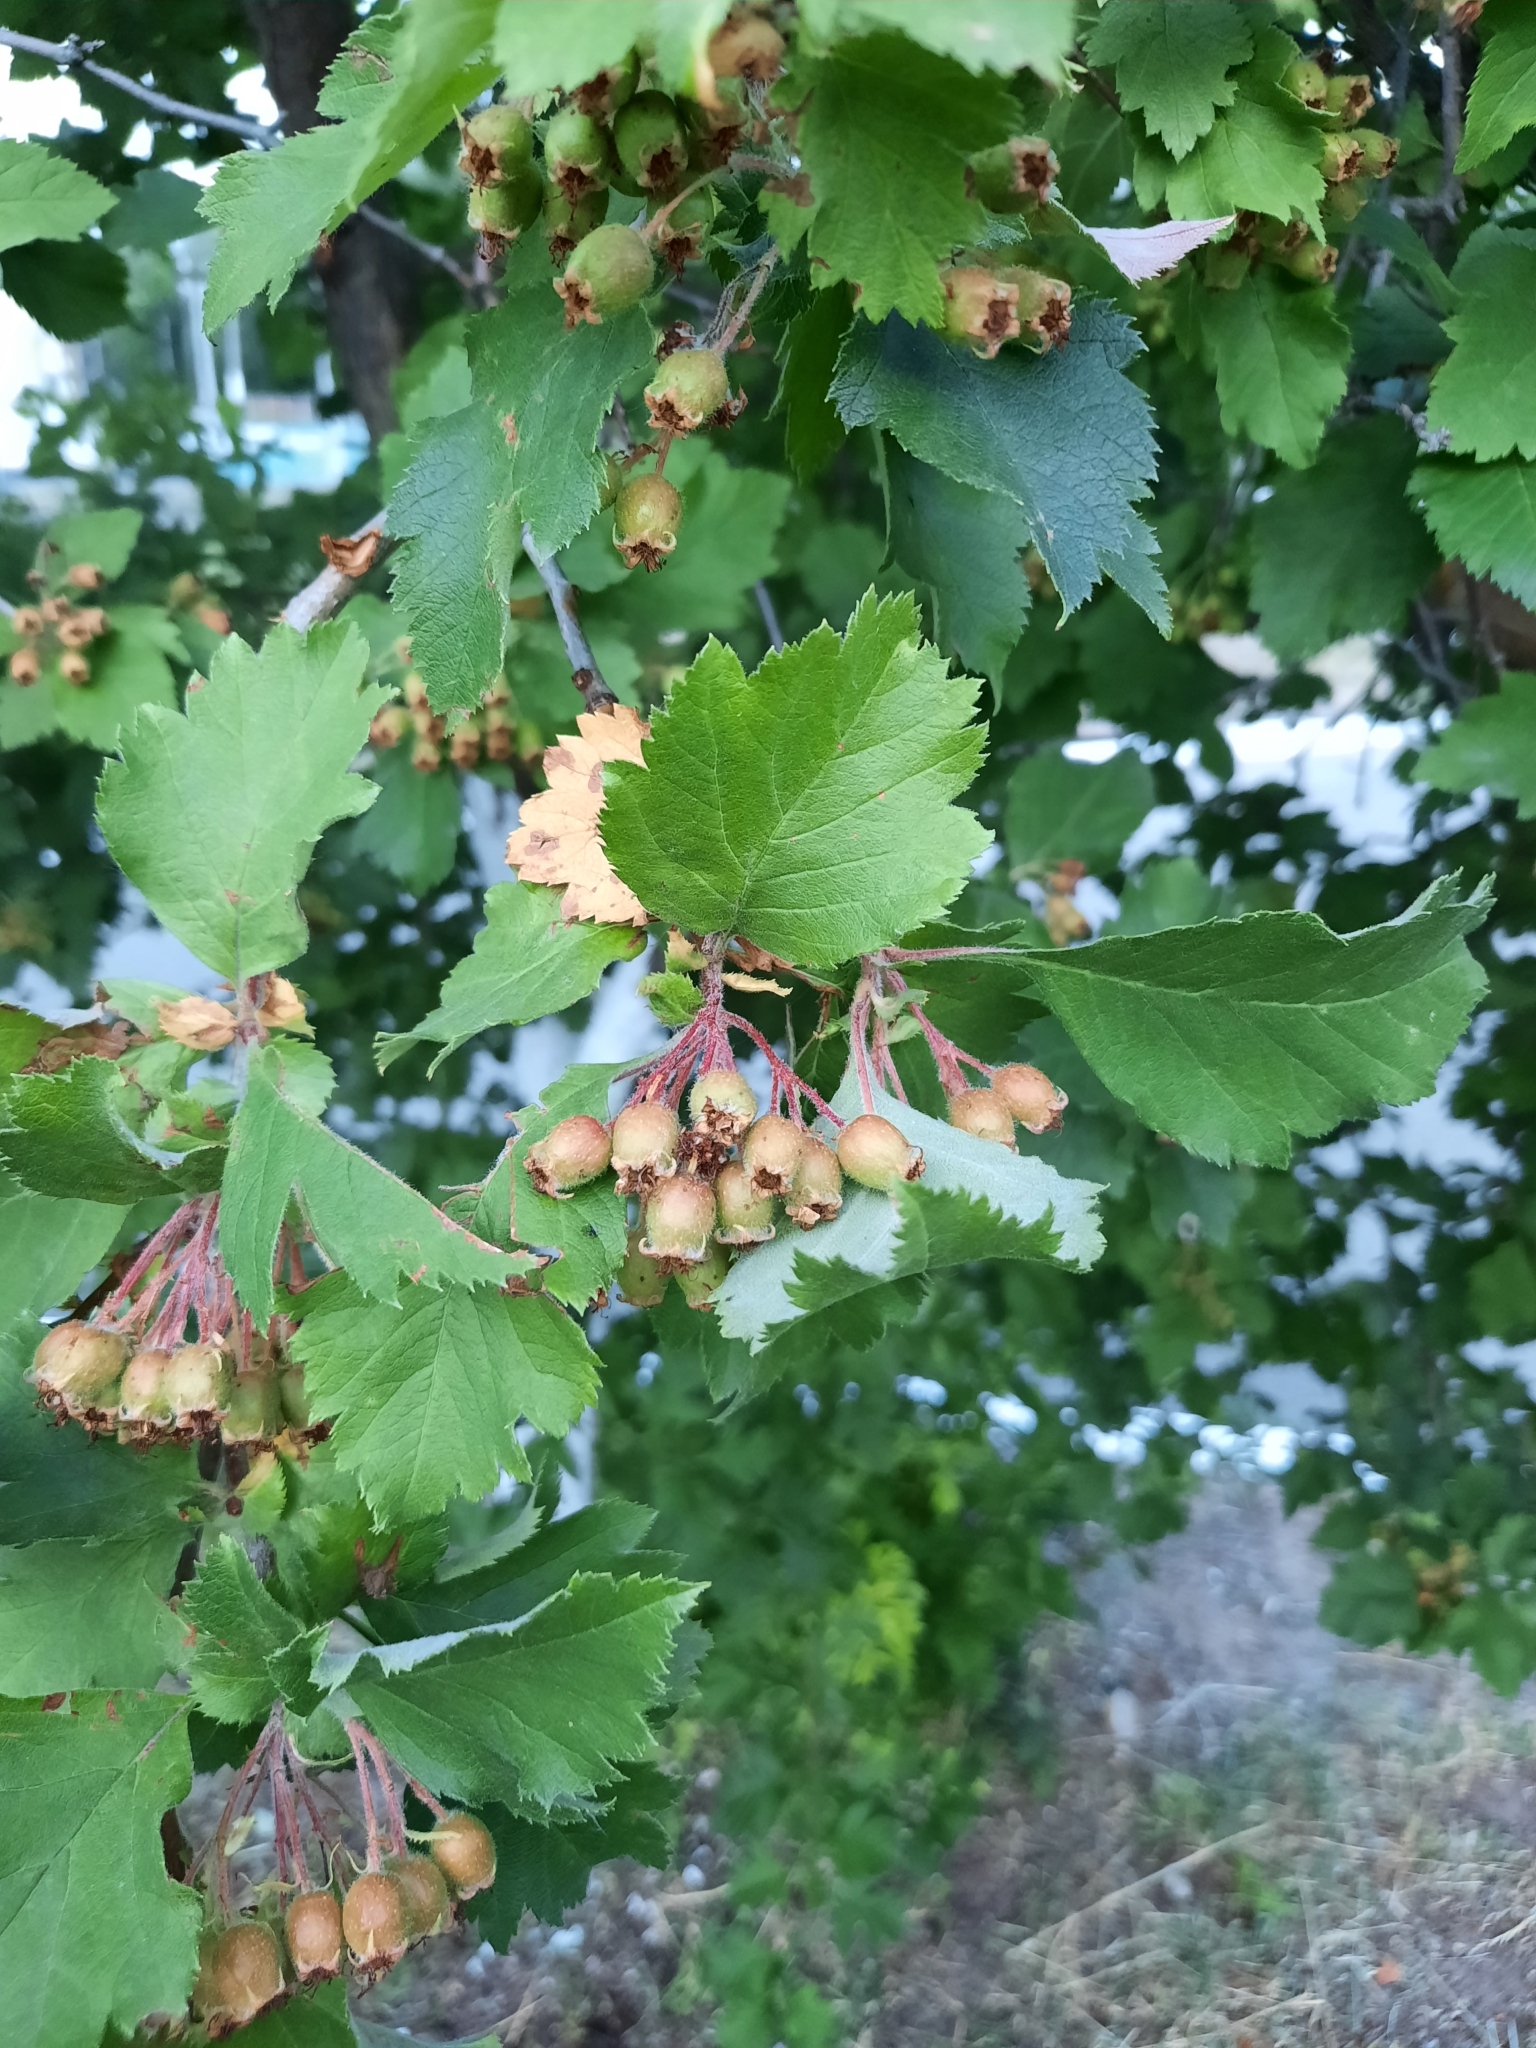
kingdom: Plantae
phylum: Tracheophyta
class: Magnoliopsida
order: Rosales
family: Rosaceae
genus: Crataegus
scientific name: Crataegus sanguinea
